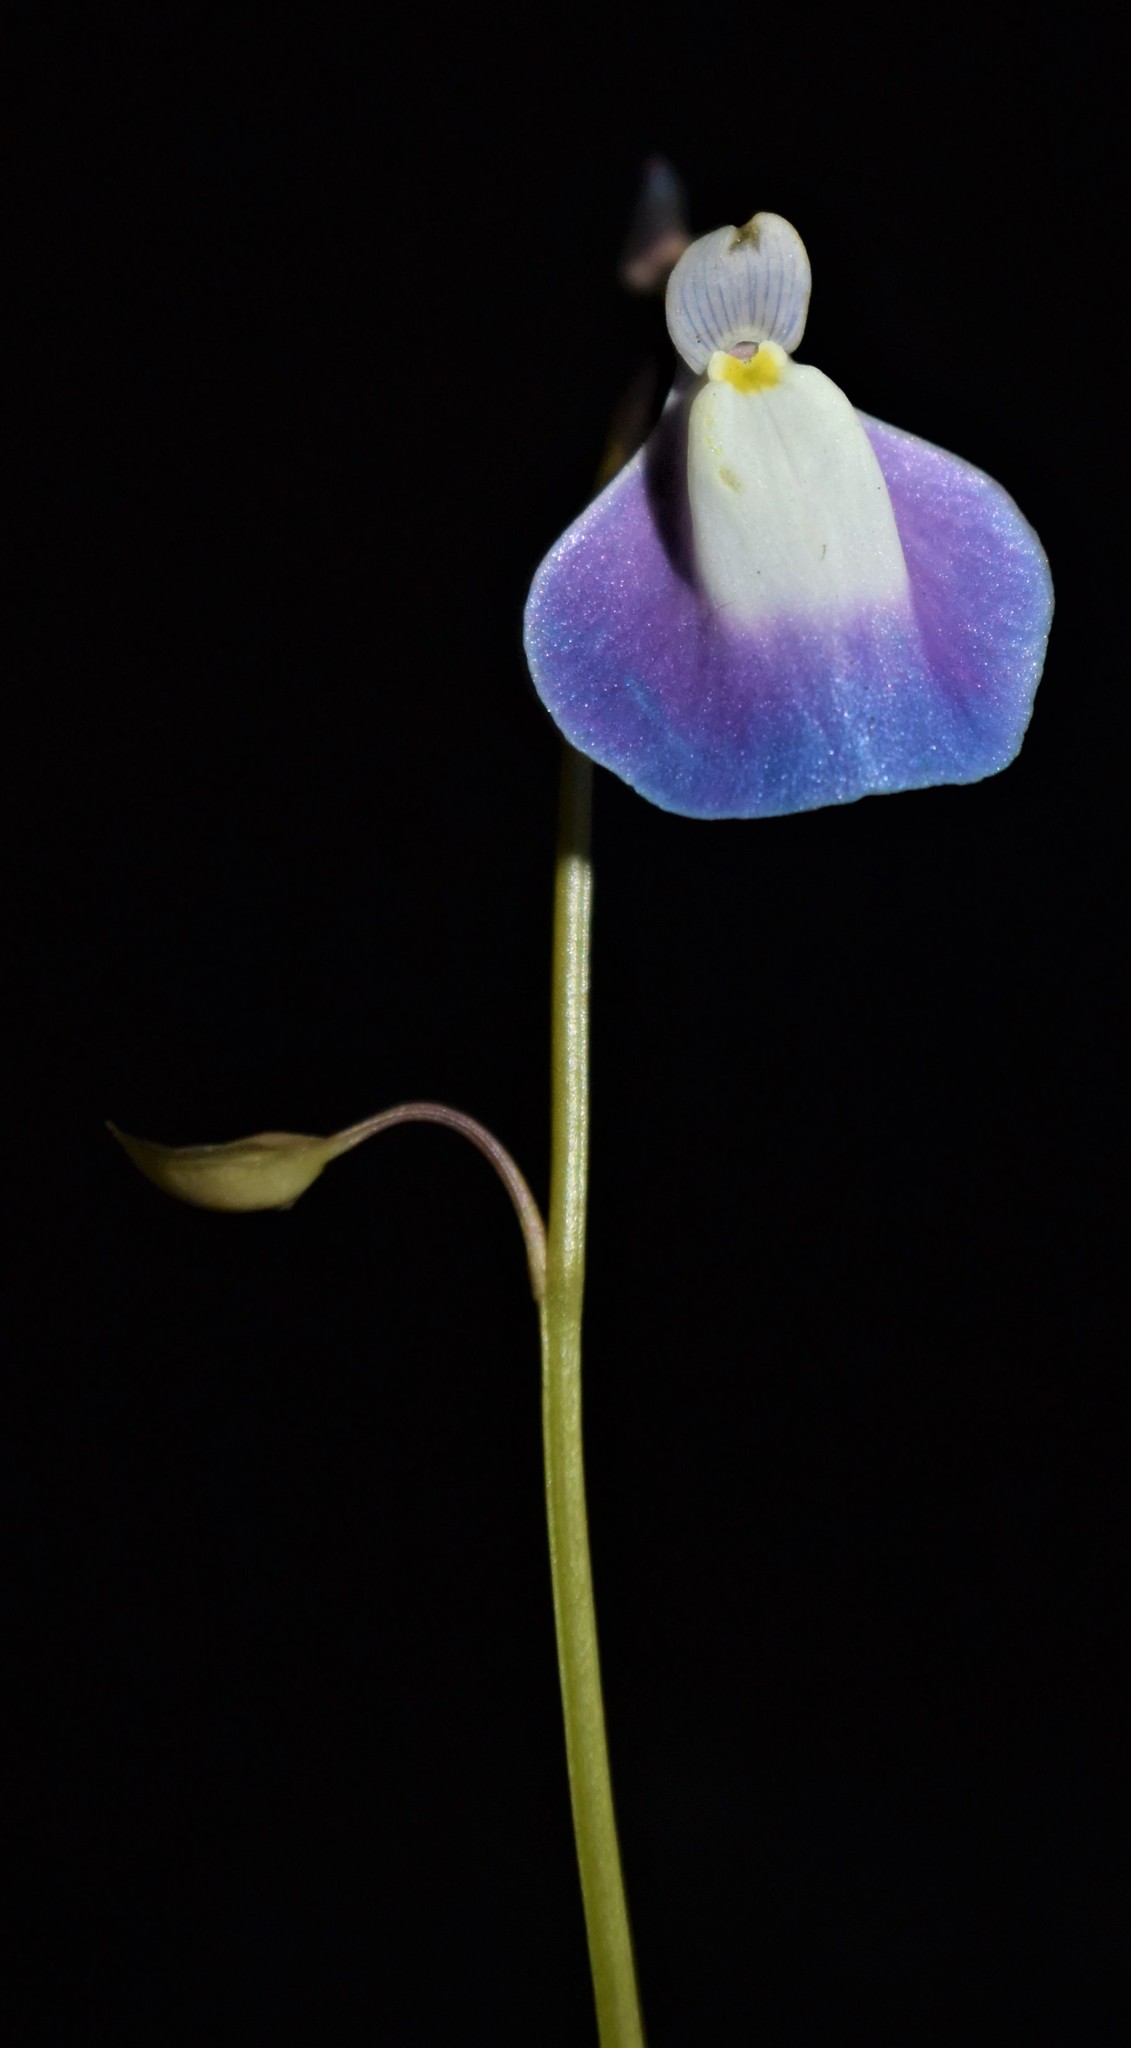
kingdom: Plantae
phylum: Tracheophyta
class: Magnoliopsida
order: Lamiales
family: Lentibulariaceae
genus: Utricularia
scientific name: Utricularia arcuata
